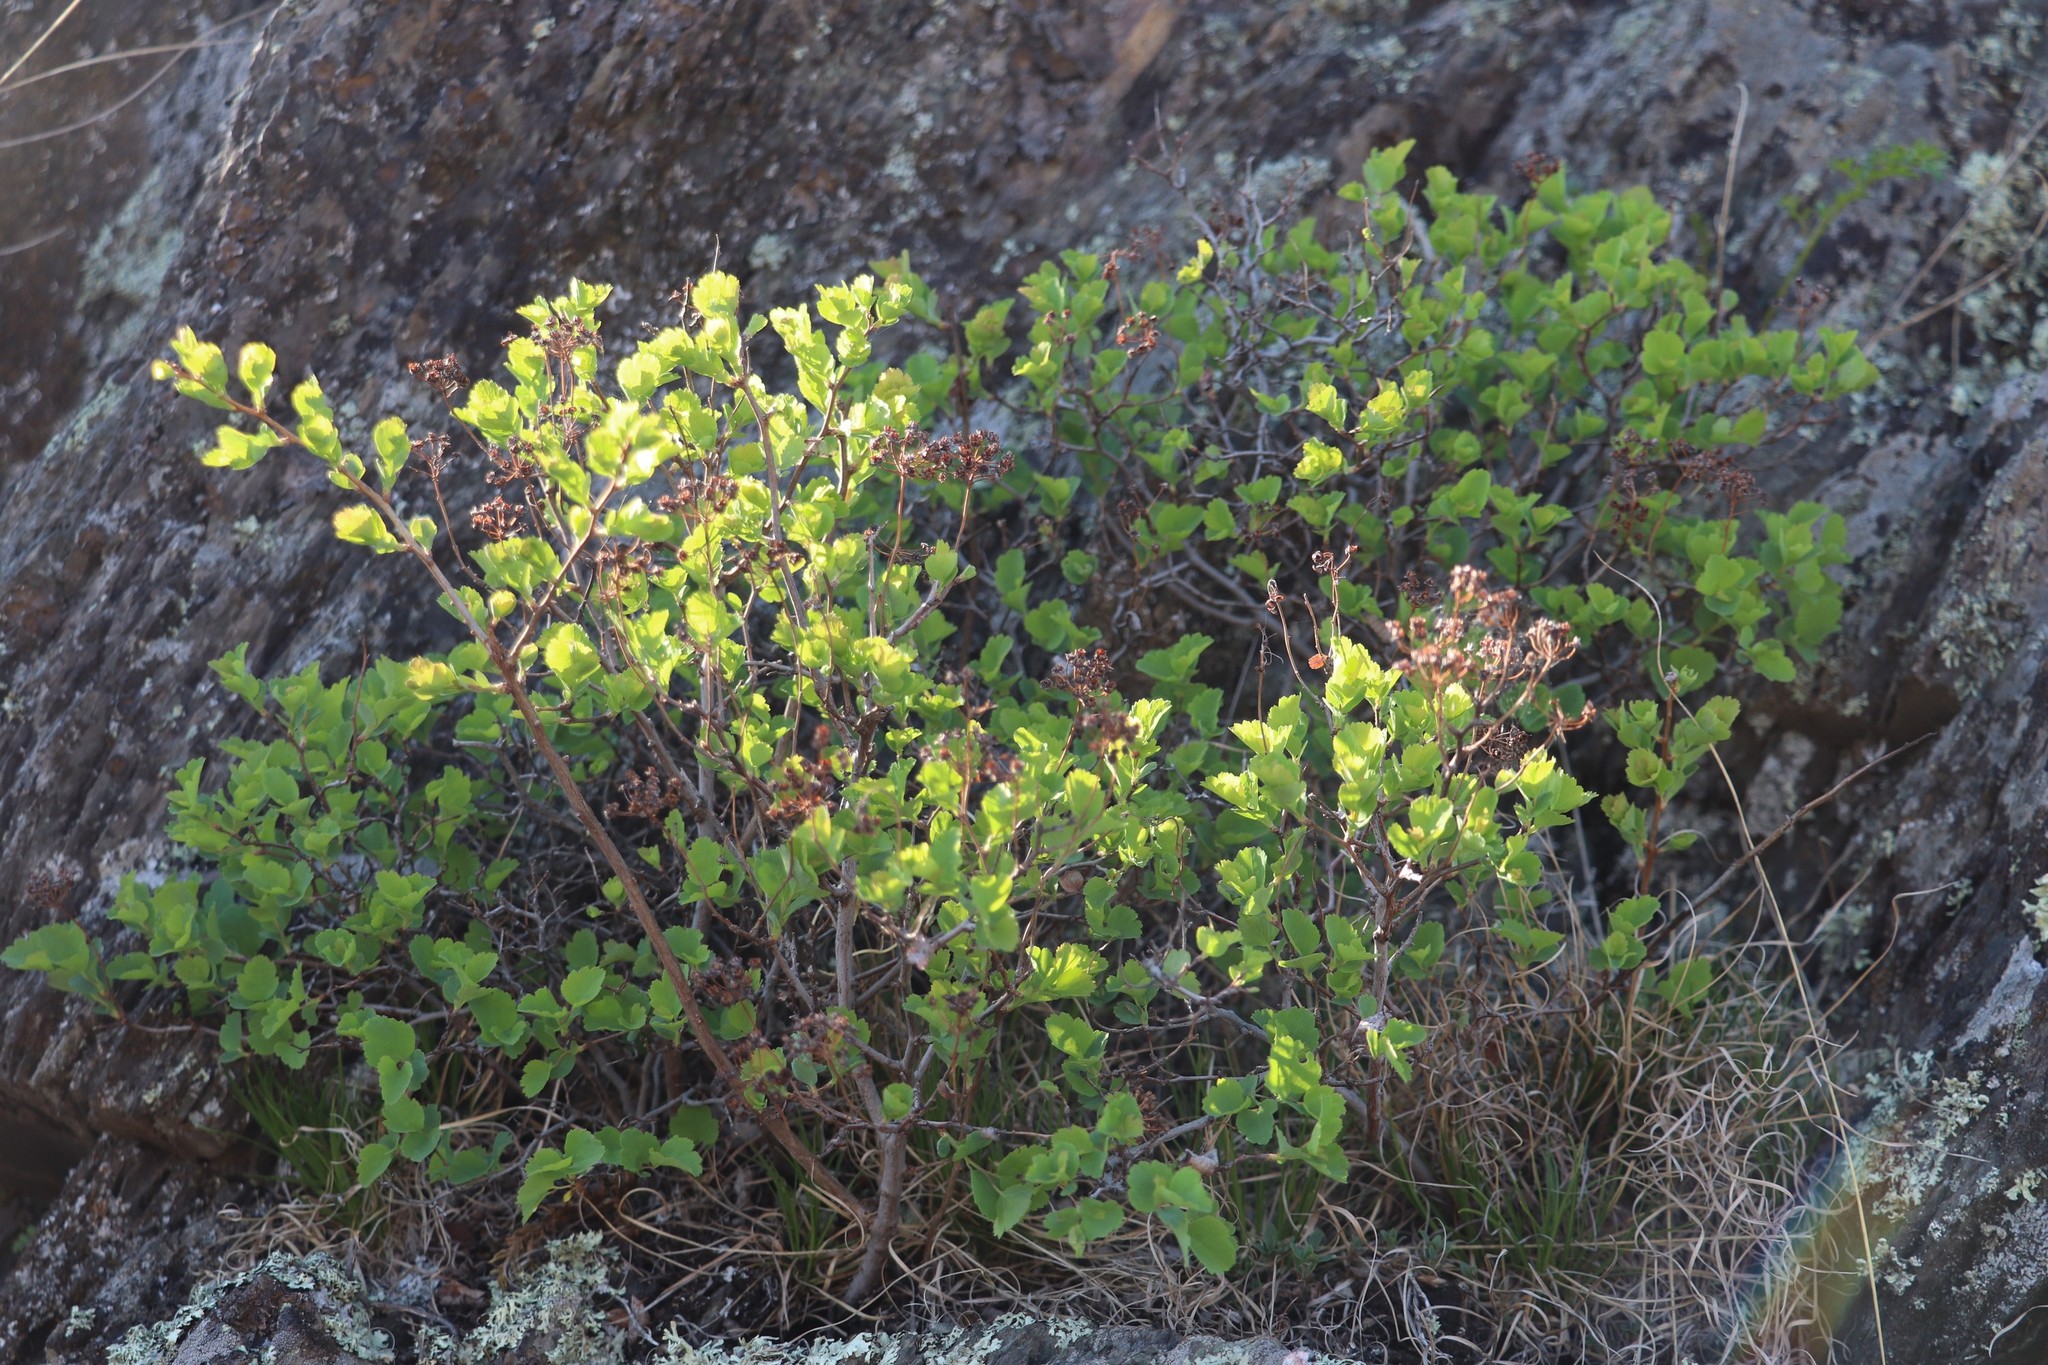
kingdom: Plantae
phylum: Tracheophyta
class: Magnoliopsida
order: Rosales
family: Rosaceae
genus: Spiraea
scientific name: Spiraea trilobata
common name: Asian meadowsweet
